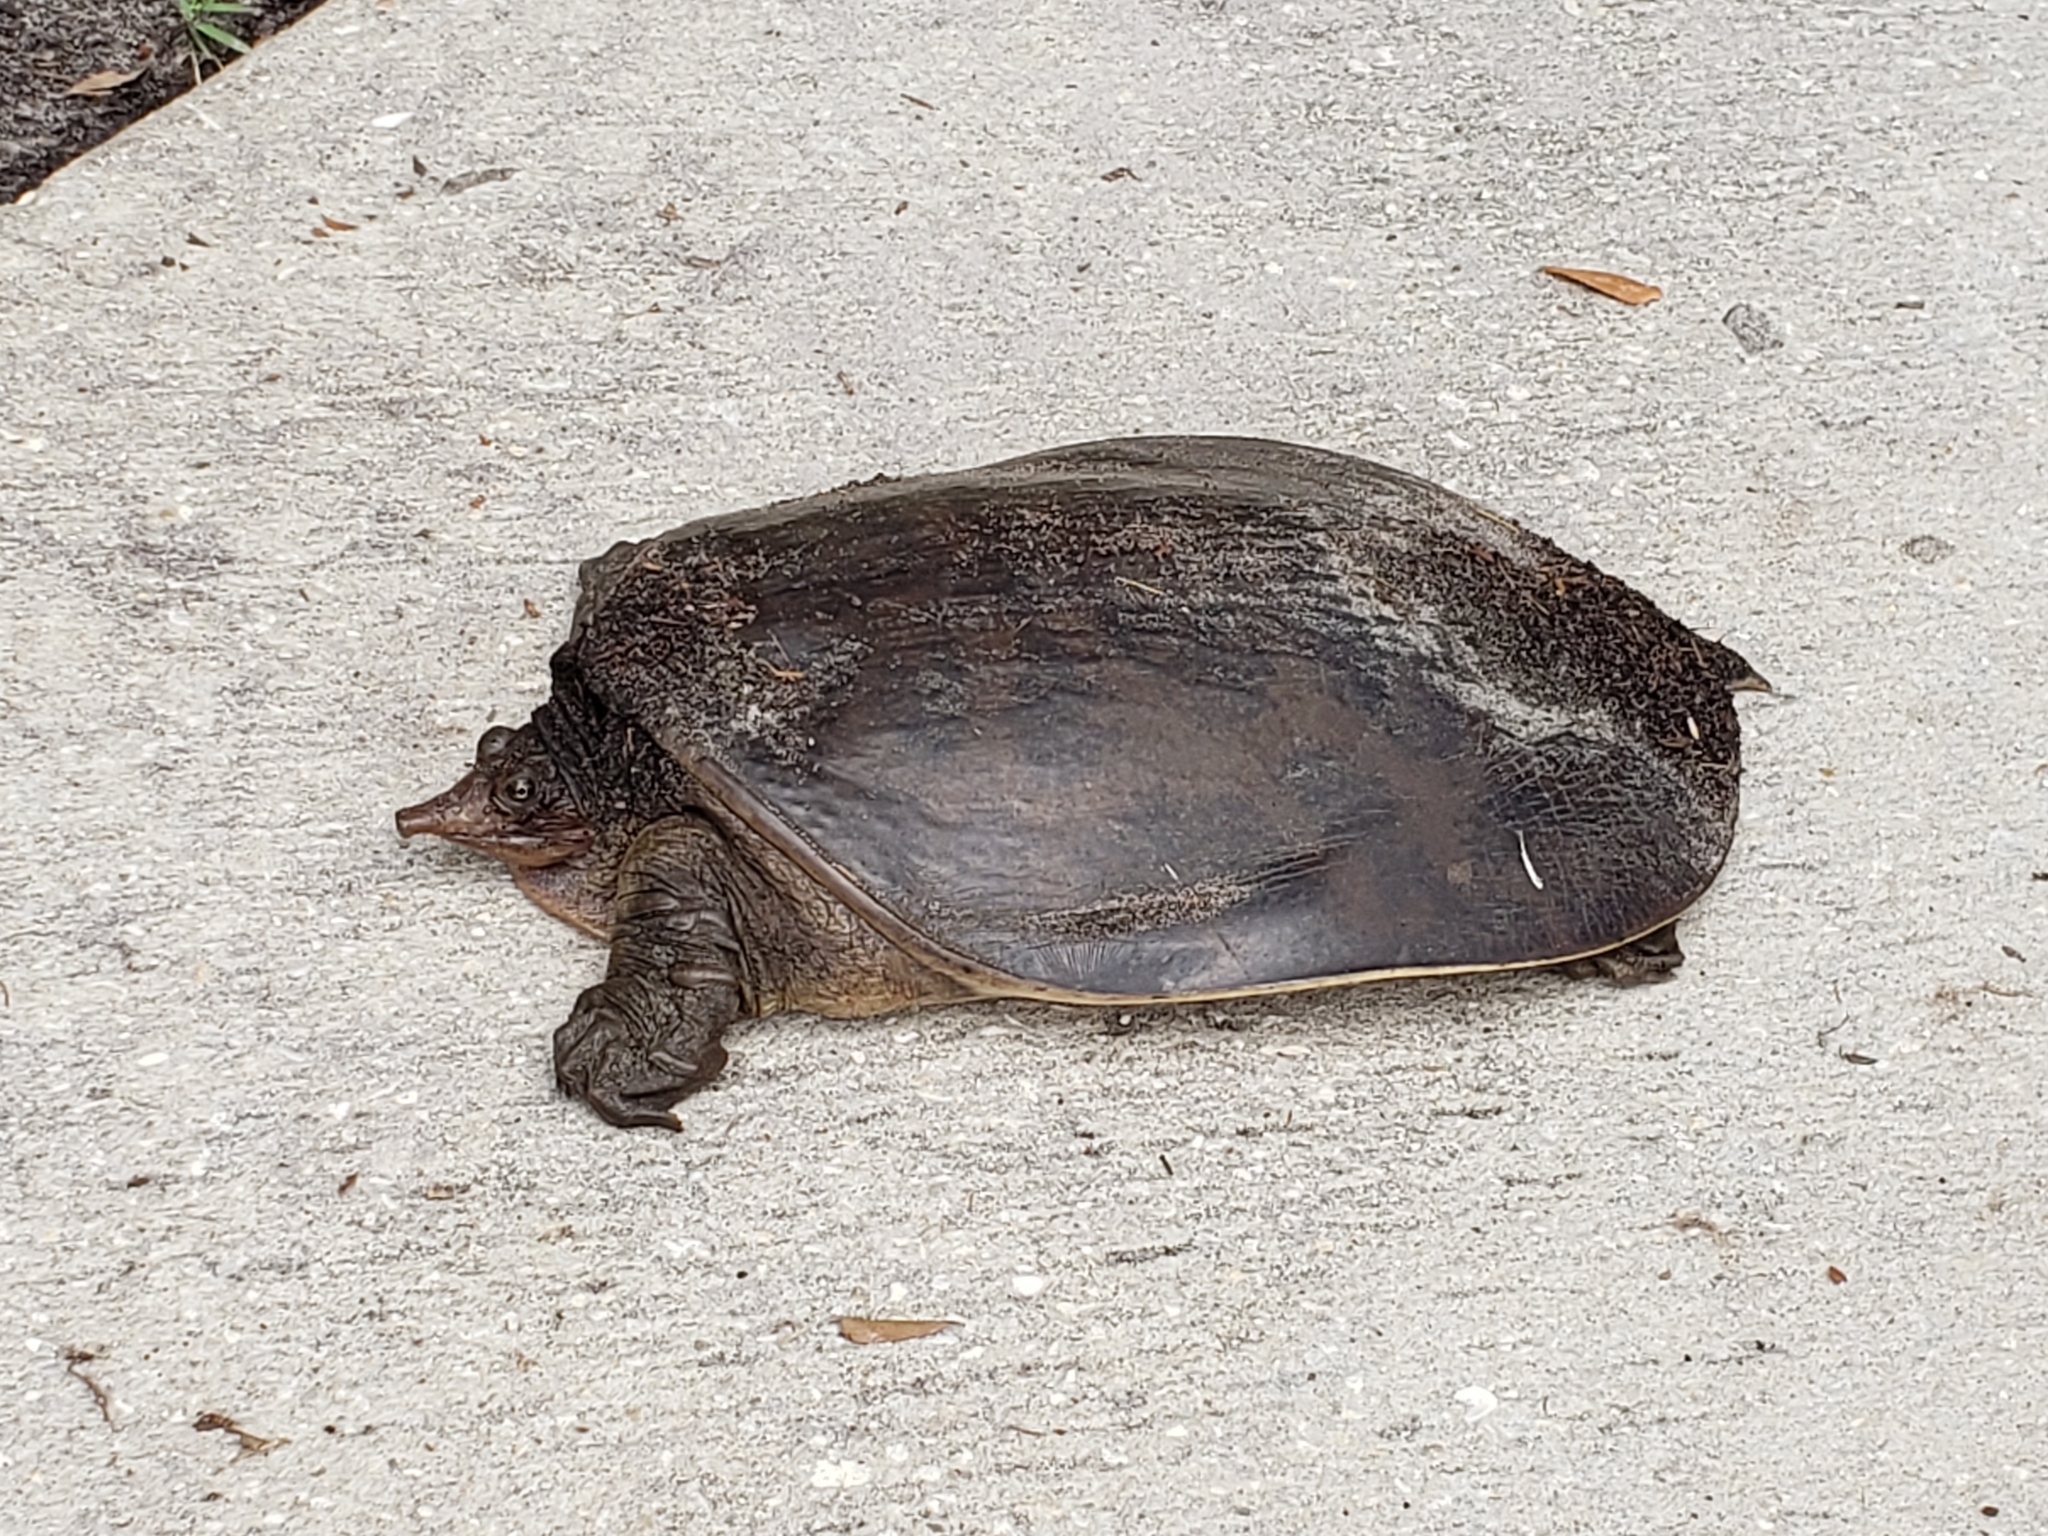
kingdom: Animalia
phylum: Chordata
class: Testudines
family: Trionychidae
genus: Apalone
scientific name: Apalone ferox
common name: Florida softshell turtle
